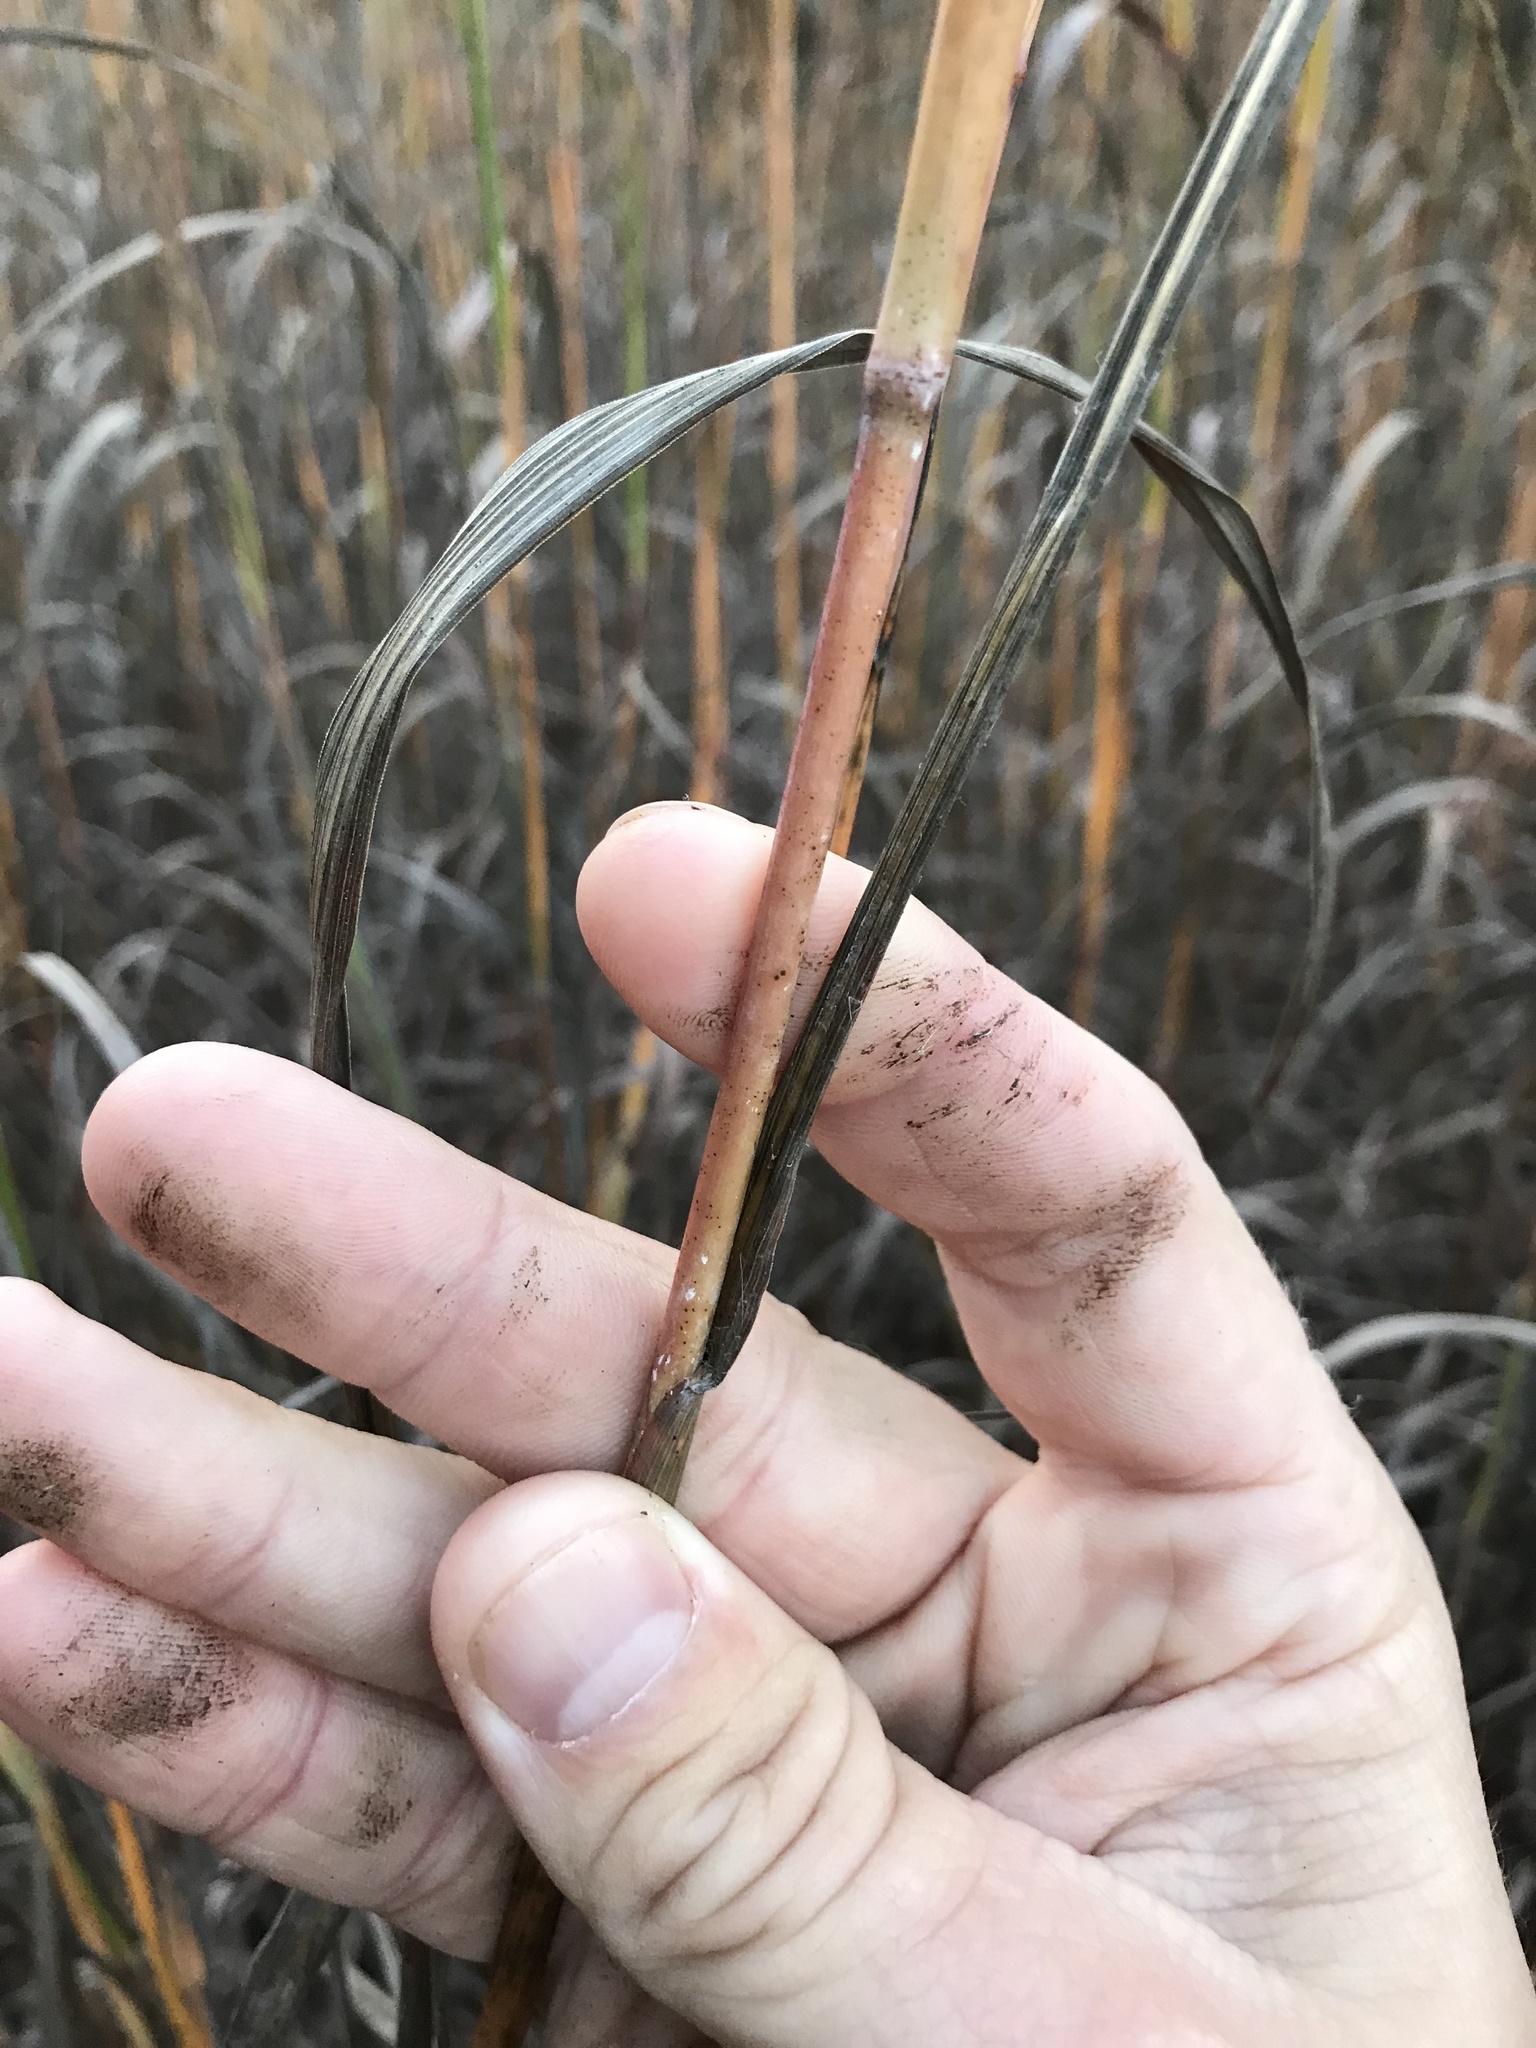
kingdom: Plantae
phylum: Tracheophyta
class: Liliopsida
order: Poales
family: Poaceae
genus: Andropogon
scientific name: Andropogon gerardi
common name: Big bluestem
